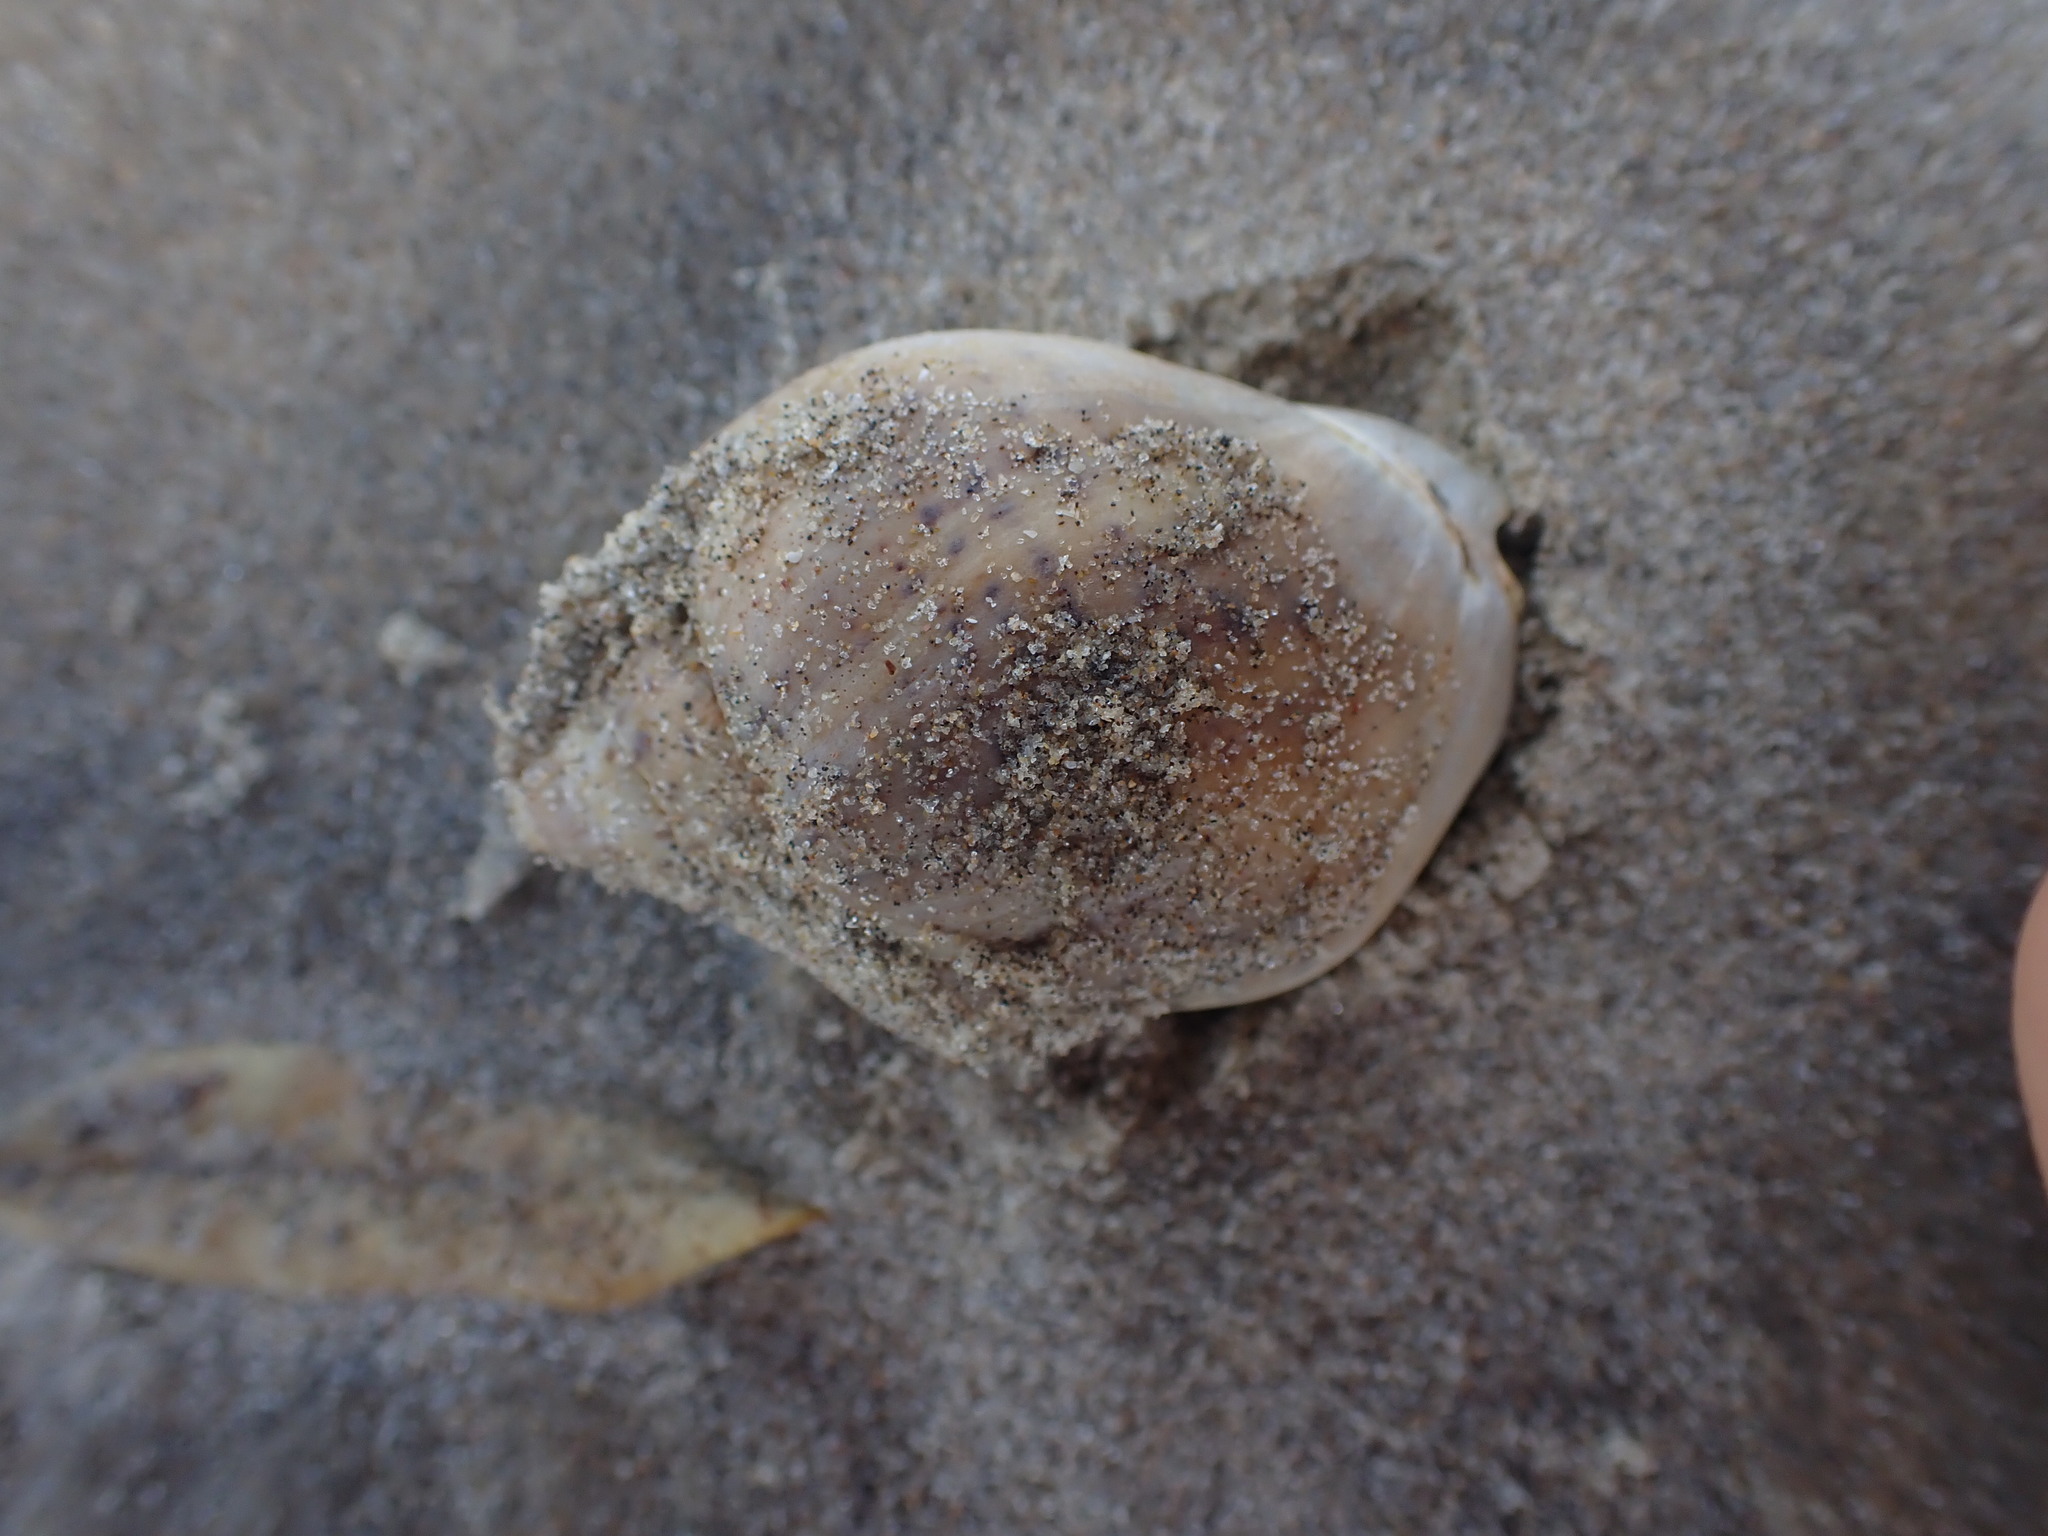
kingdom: Animalia
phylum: Mollusca
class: Gastropoda
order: Neogastropoda
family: Cominellidae
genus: Cominella
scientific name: Cominella adspersa
